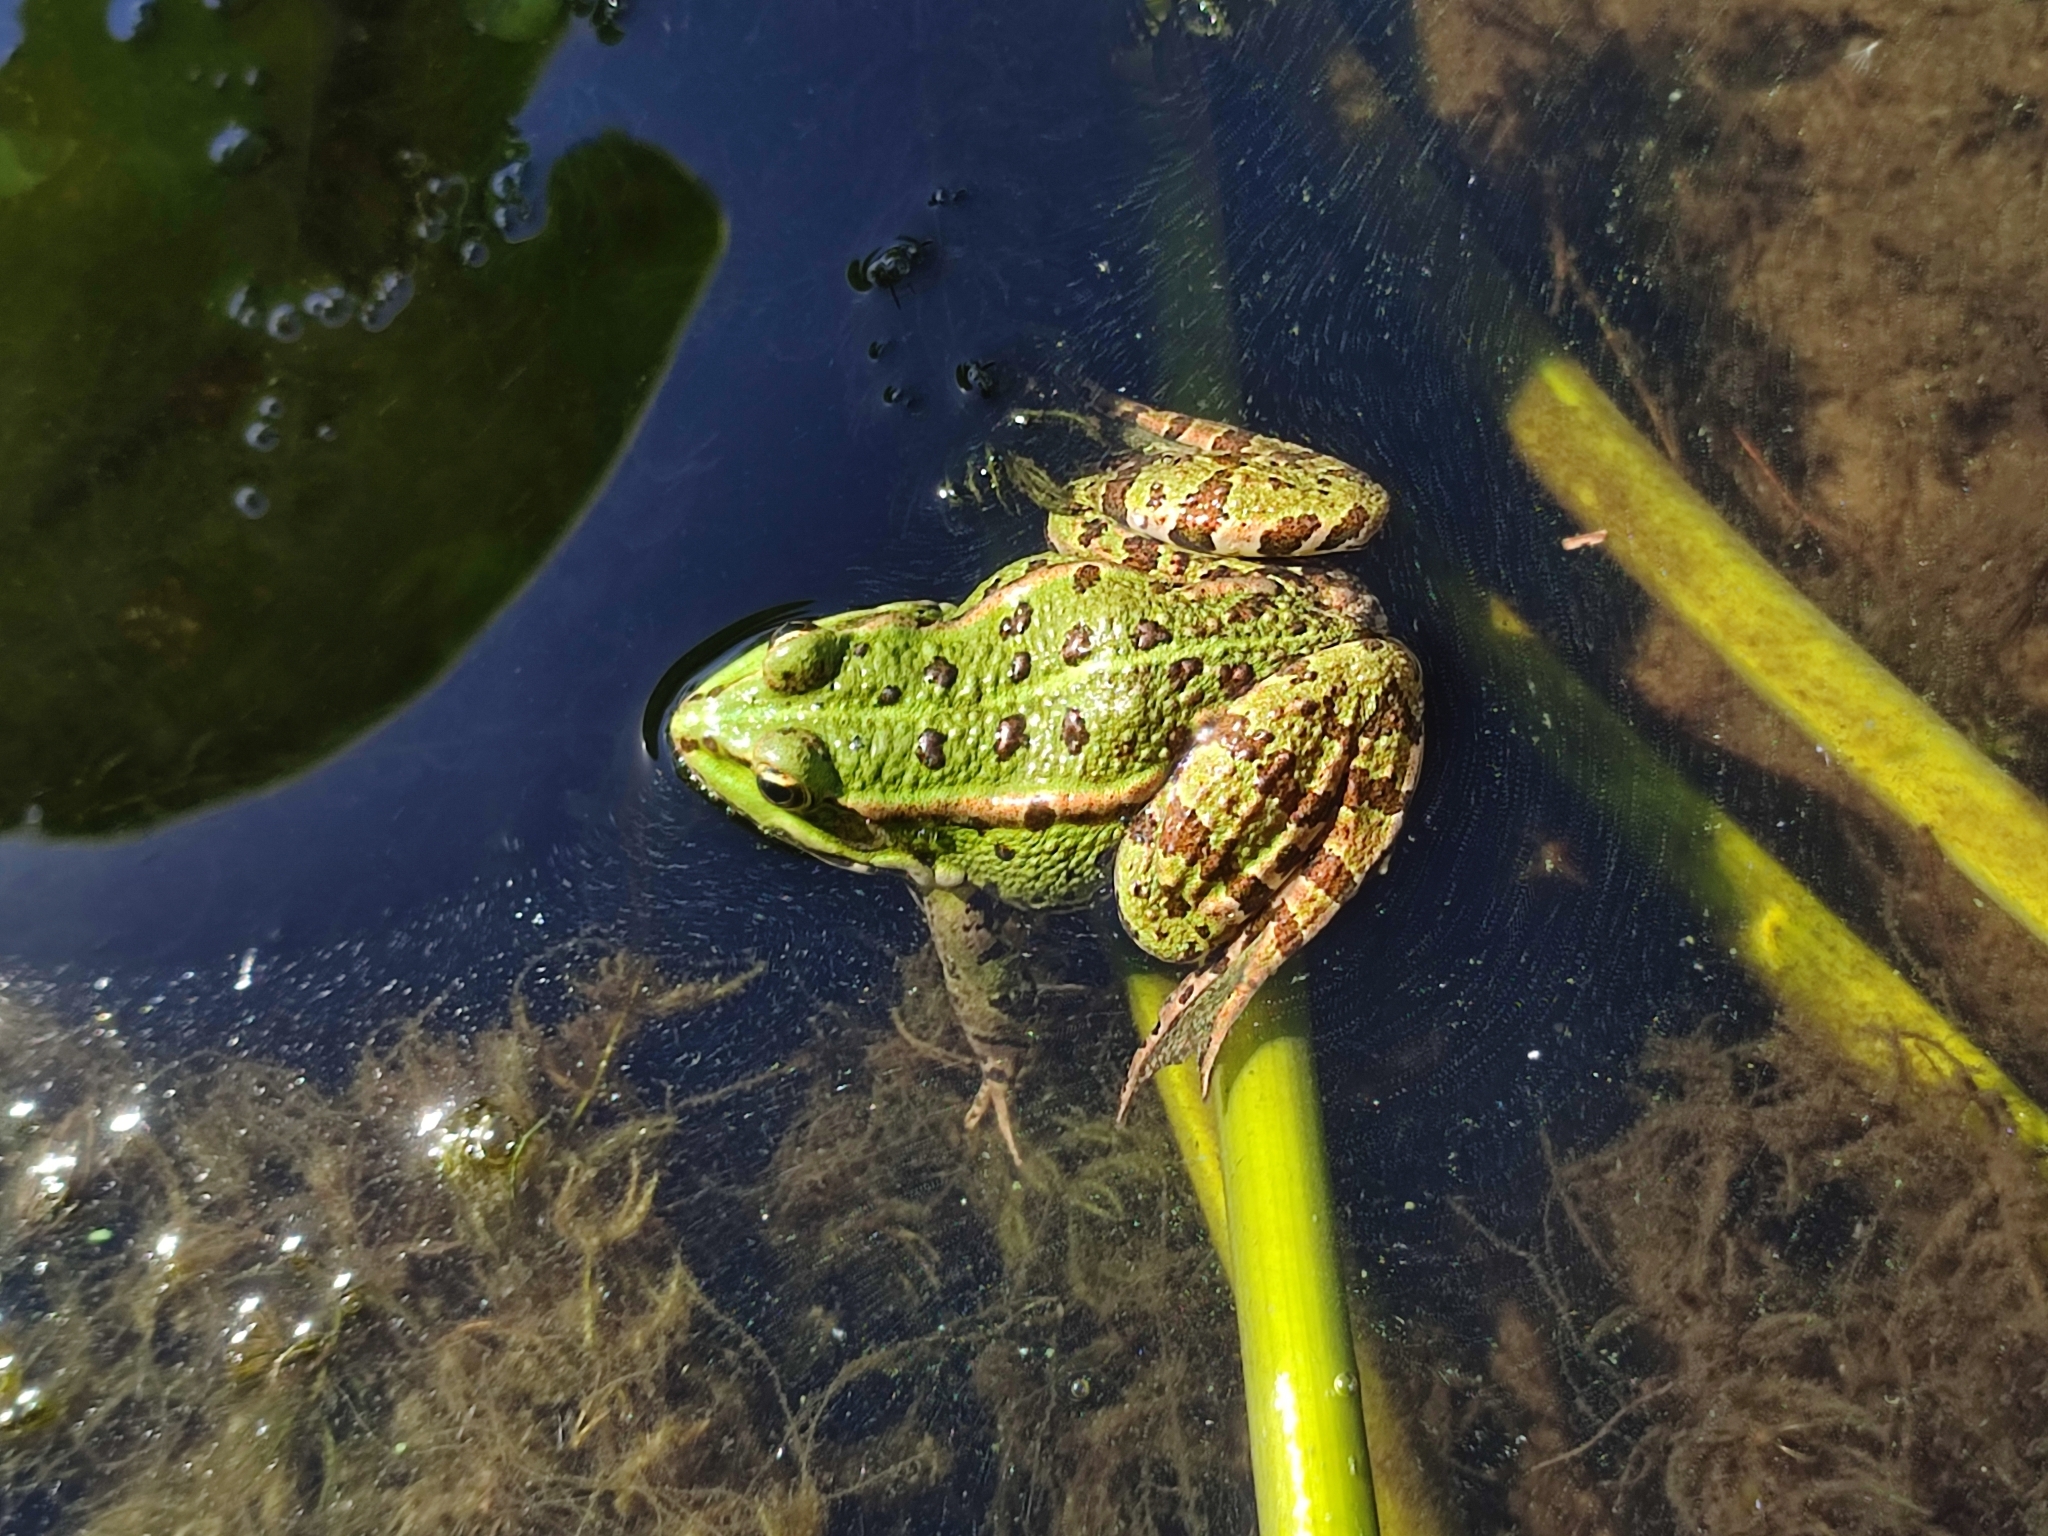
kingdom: Animalia
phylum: Chordata
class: Amphibia
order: Anura
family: Ranidae
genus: Pelophylax
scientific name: Pelophylax ridibundus
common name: Marsh frog
